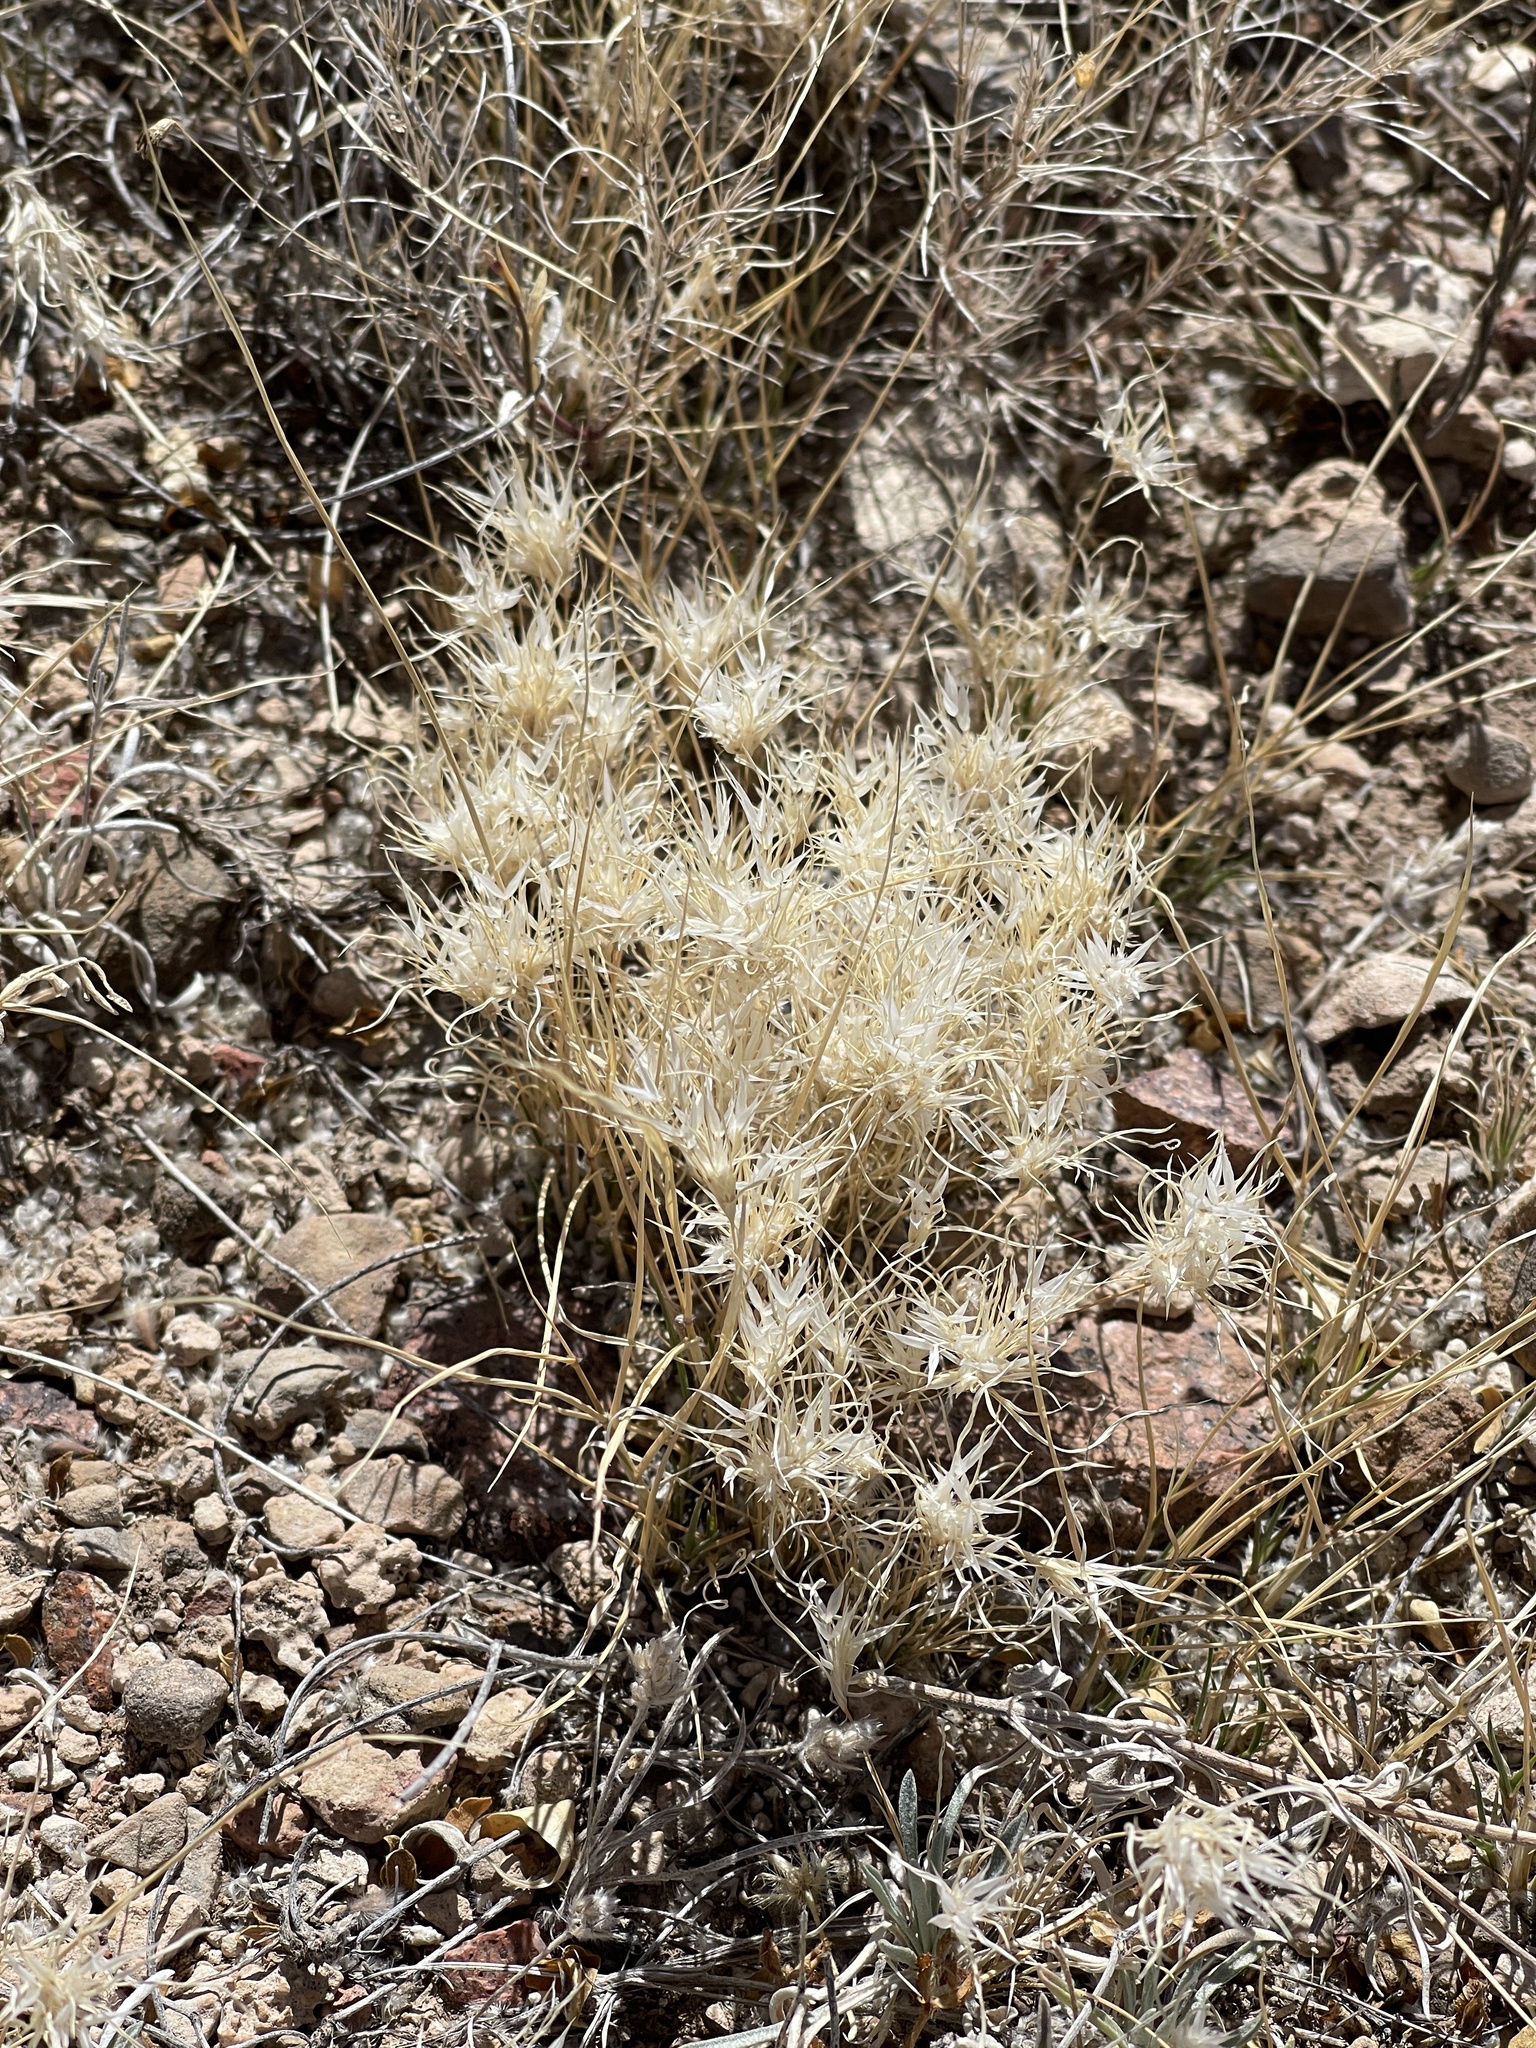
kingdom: Plantae
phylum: Tracheophyta
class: Liliopsida
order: Poales
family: Poaceae
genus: Dasyochloa
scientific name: Dasyochloa pulchella
